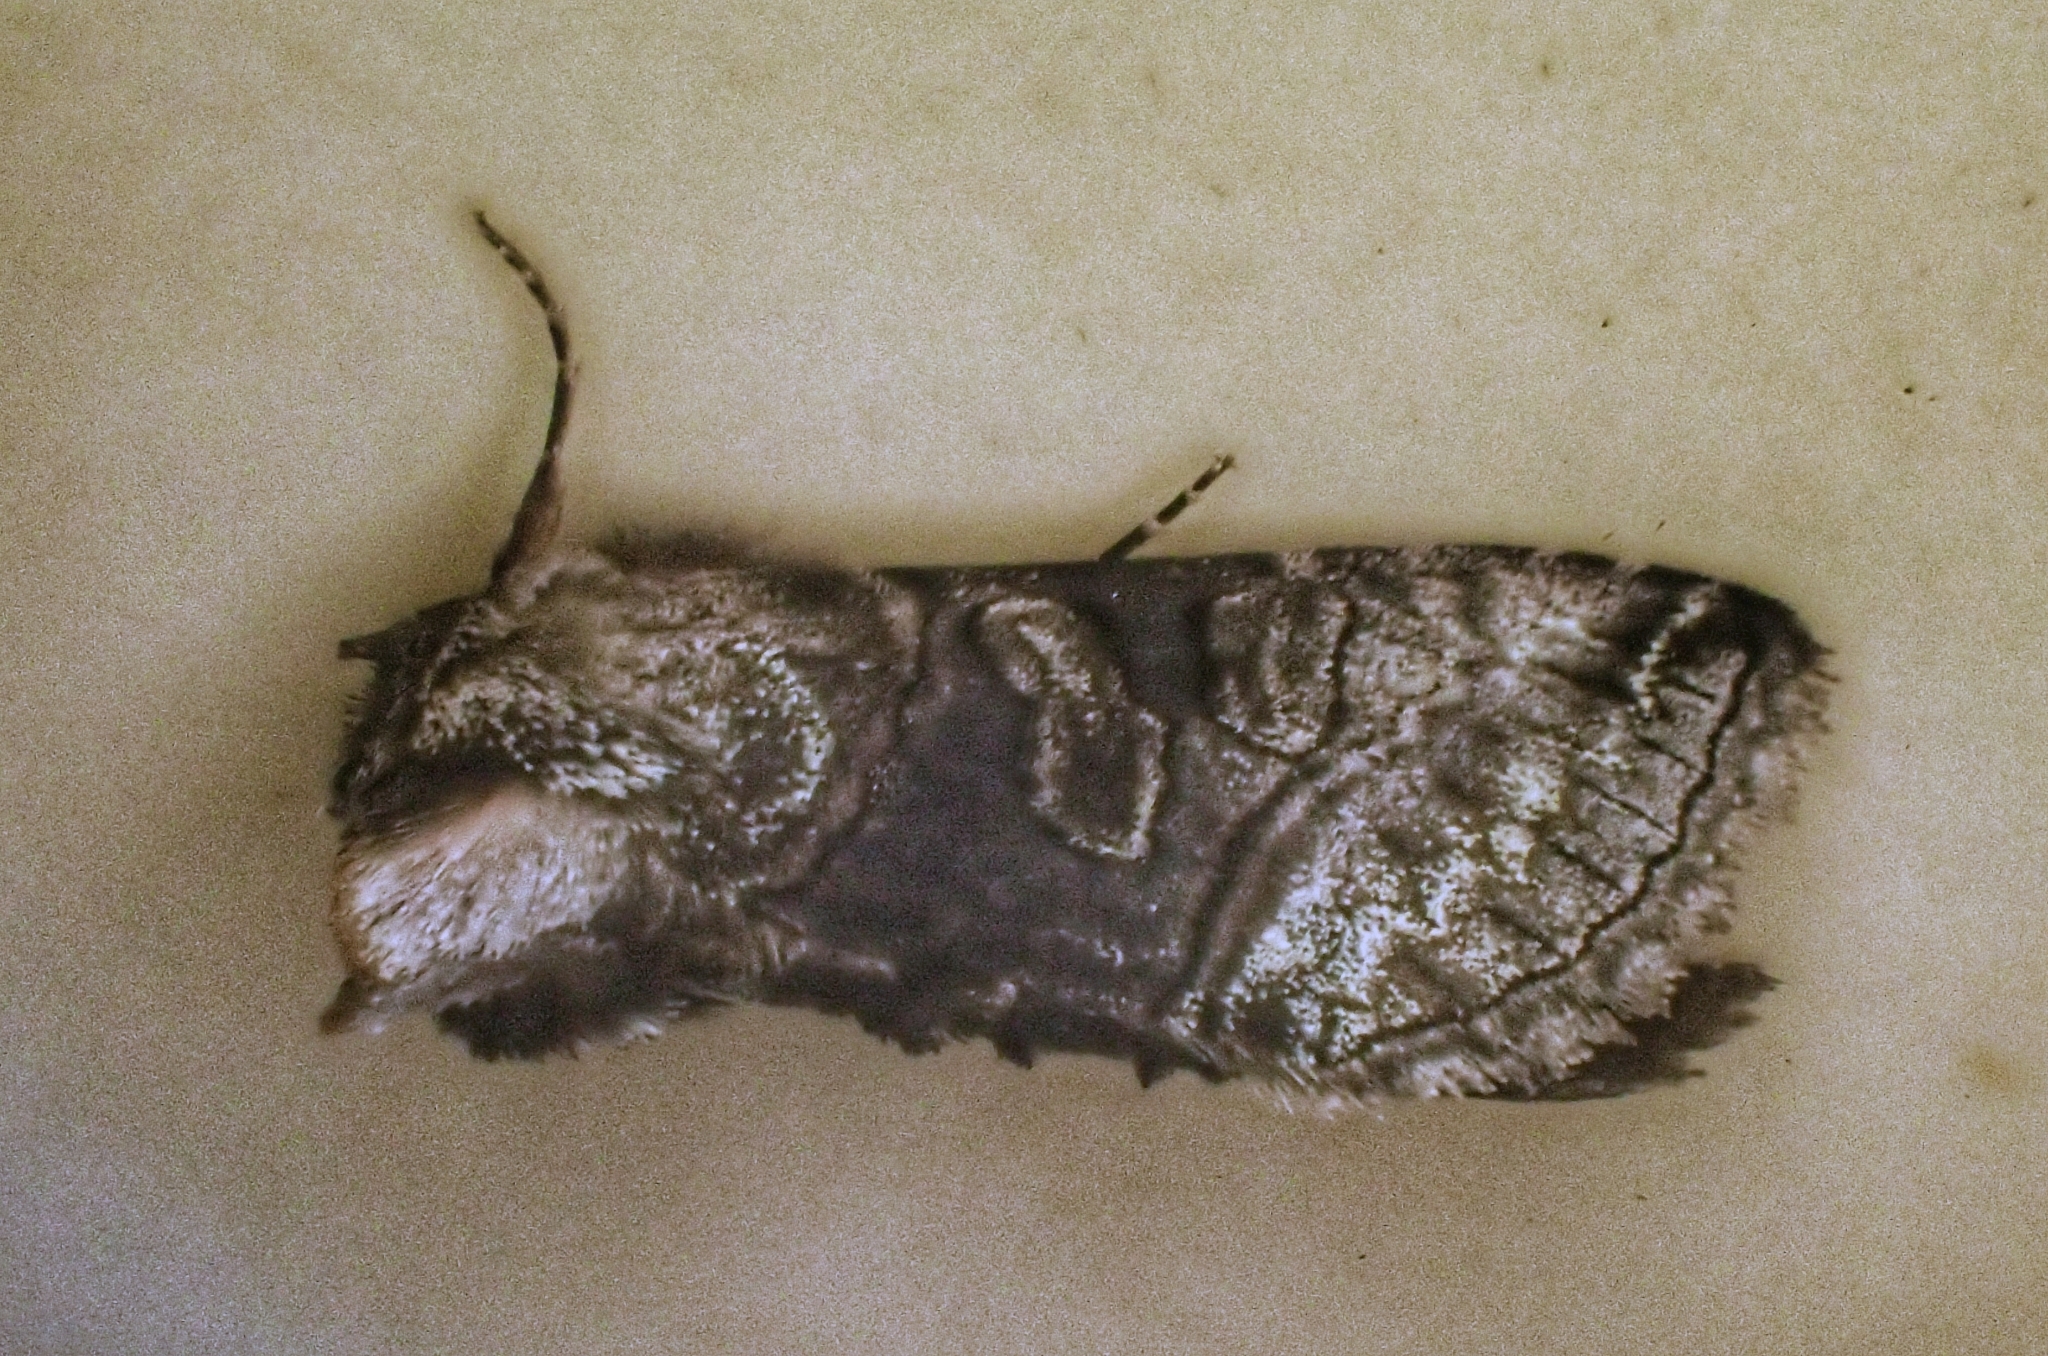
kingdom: Animalia
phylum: Arthropoda
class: Insecta
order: Lepidoptera
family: Noctuidae
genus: Abrostola
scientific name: Abrostola tripartita
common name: Spectacle
